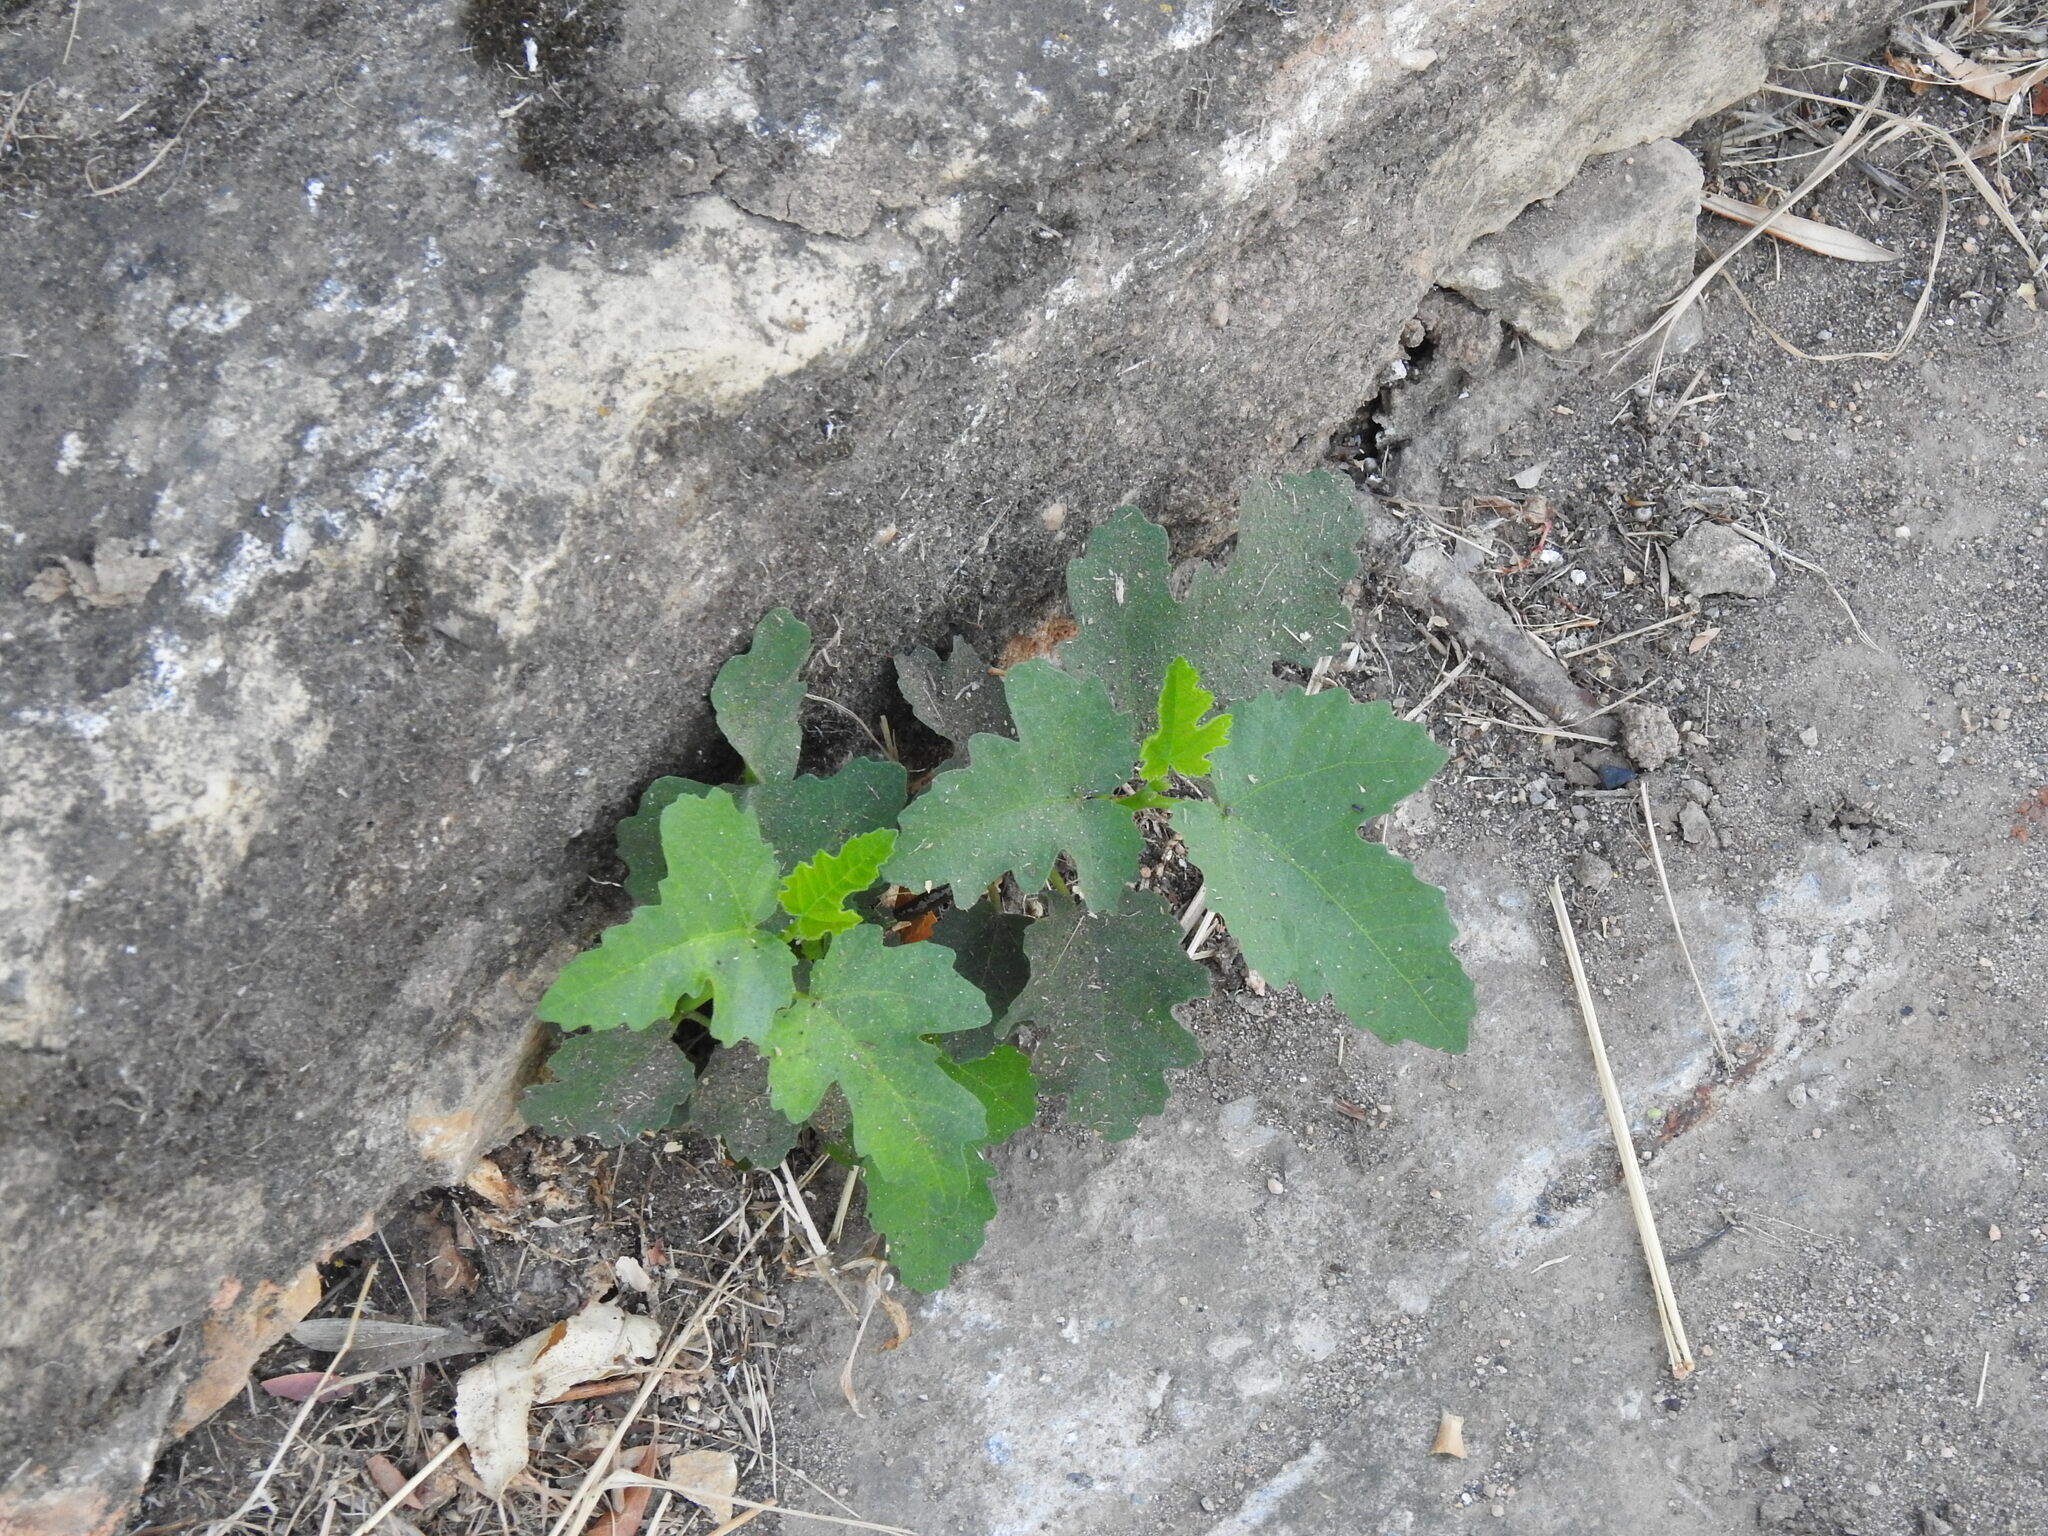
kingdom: Plantae
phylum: Tracheophyta
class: Magnoliopsida
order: Rosales
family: Moraceae
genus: Ficus
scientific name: Ficus carica
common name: Fig
